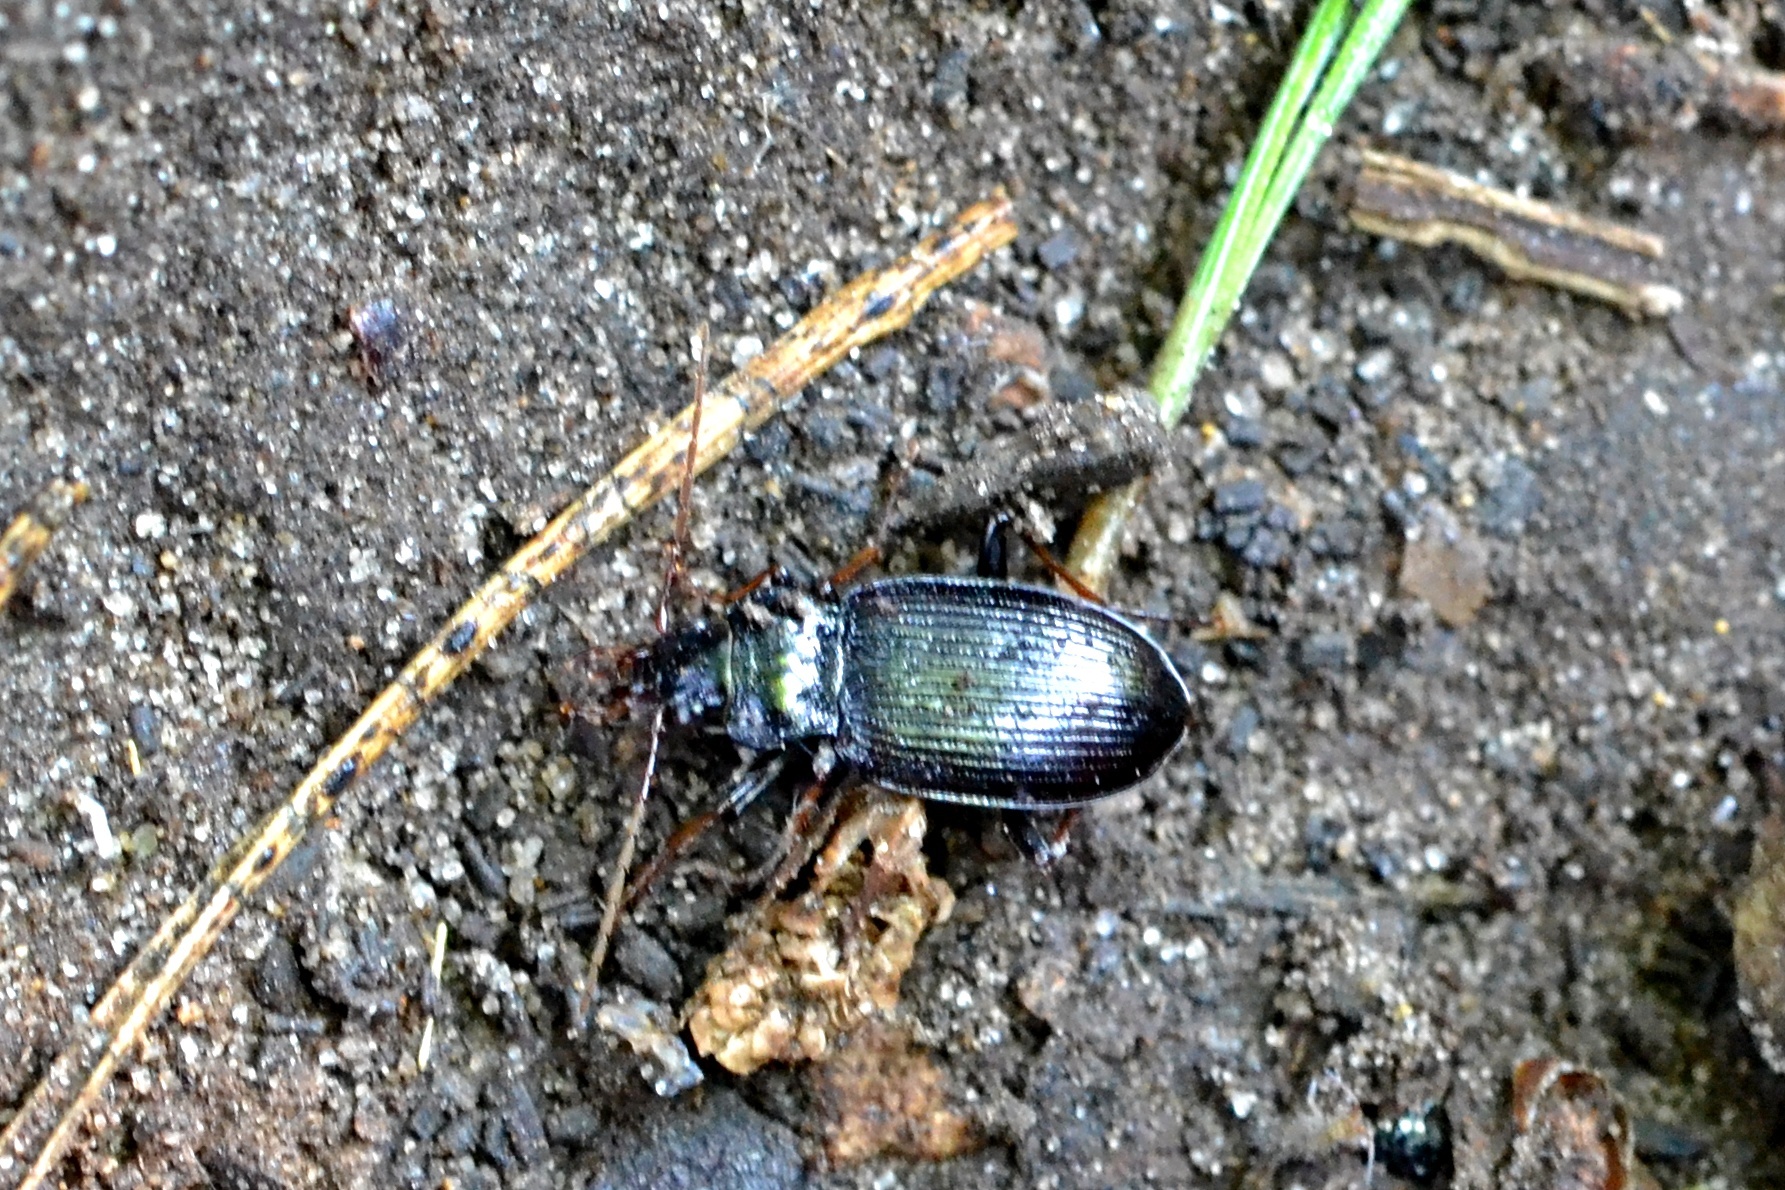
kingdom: Animalia
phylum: Arthropoda
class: Insecta
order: Coleoptera
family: Carabidae
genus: Nebria
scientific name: Nebria brevicollis
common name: Short-necked gazelle beetle
